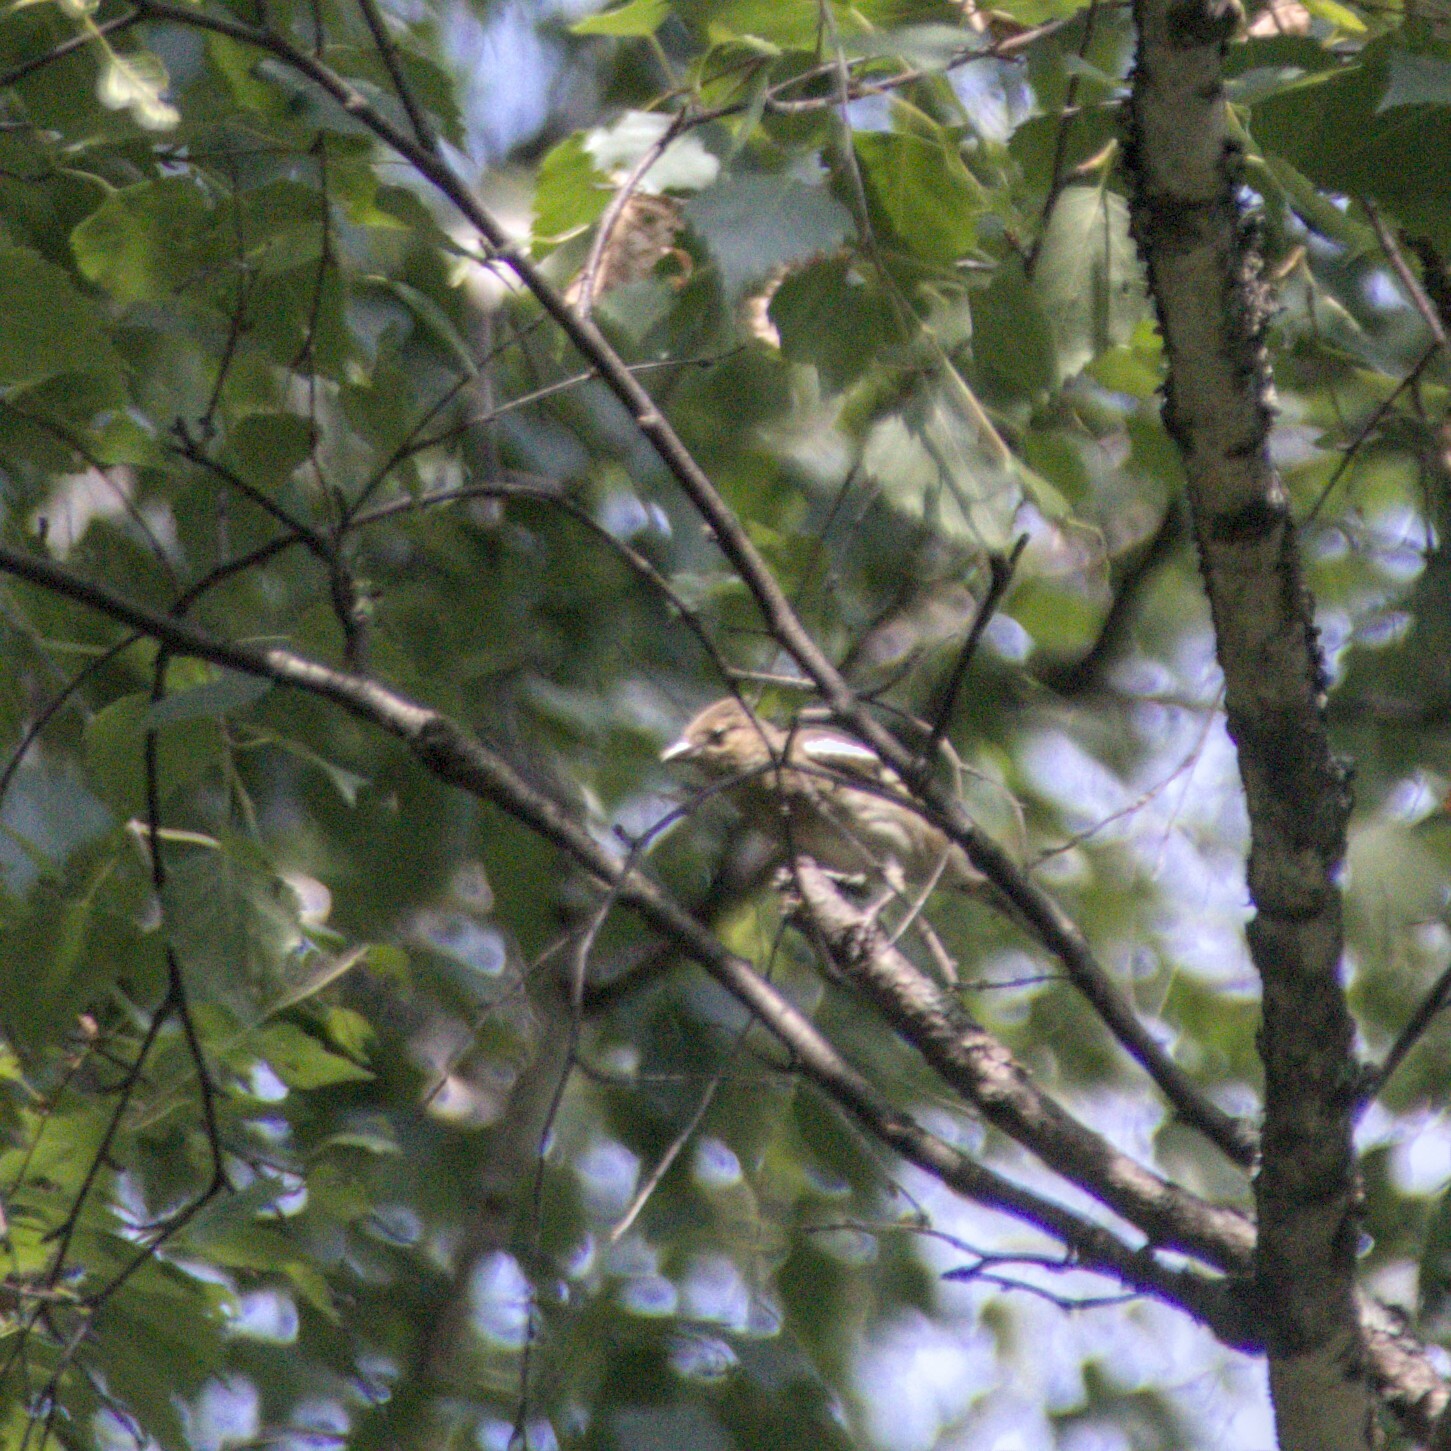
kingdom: Animalia
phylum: Chordata
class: Aves
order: Passeriformes
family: Fringillidae
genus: Fringilla
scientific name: Fringilla coelebs
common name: Common chaffinch
